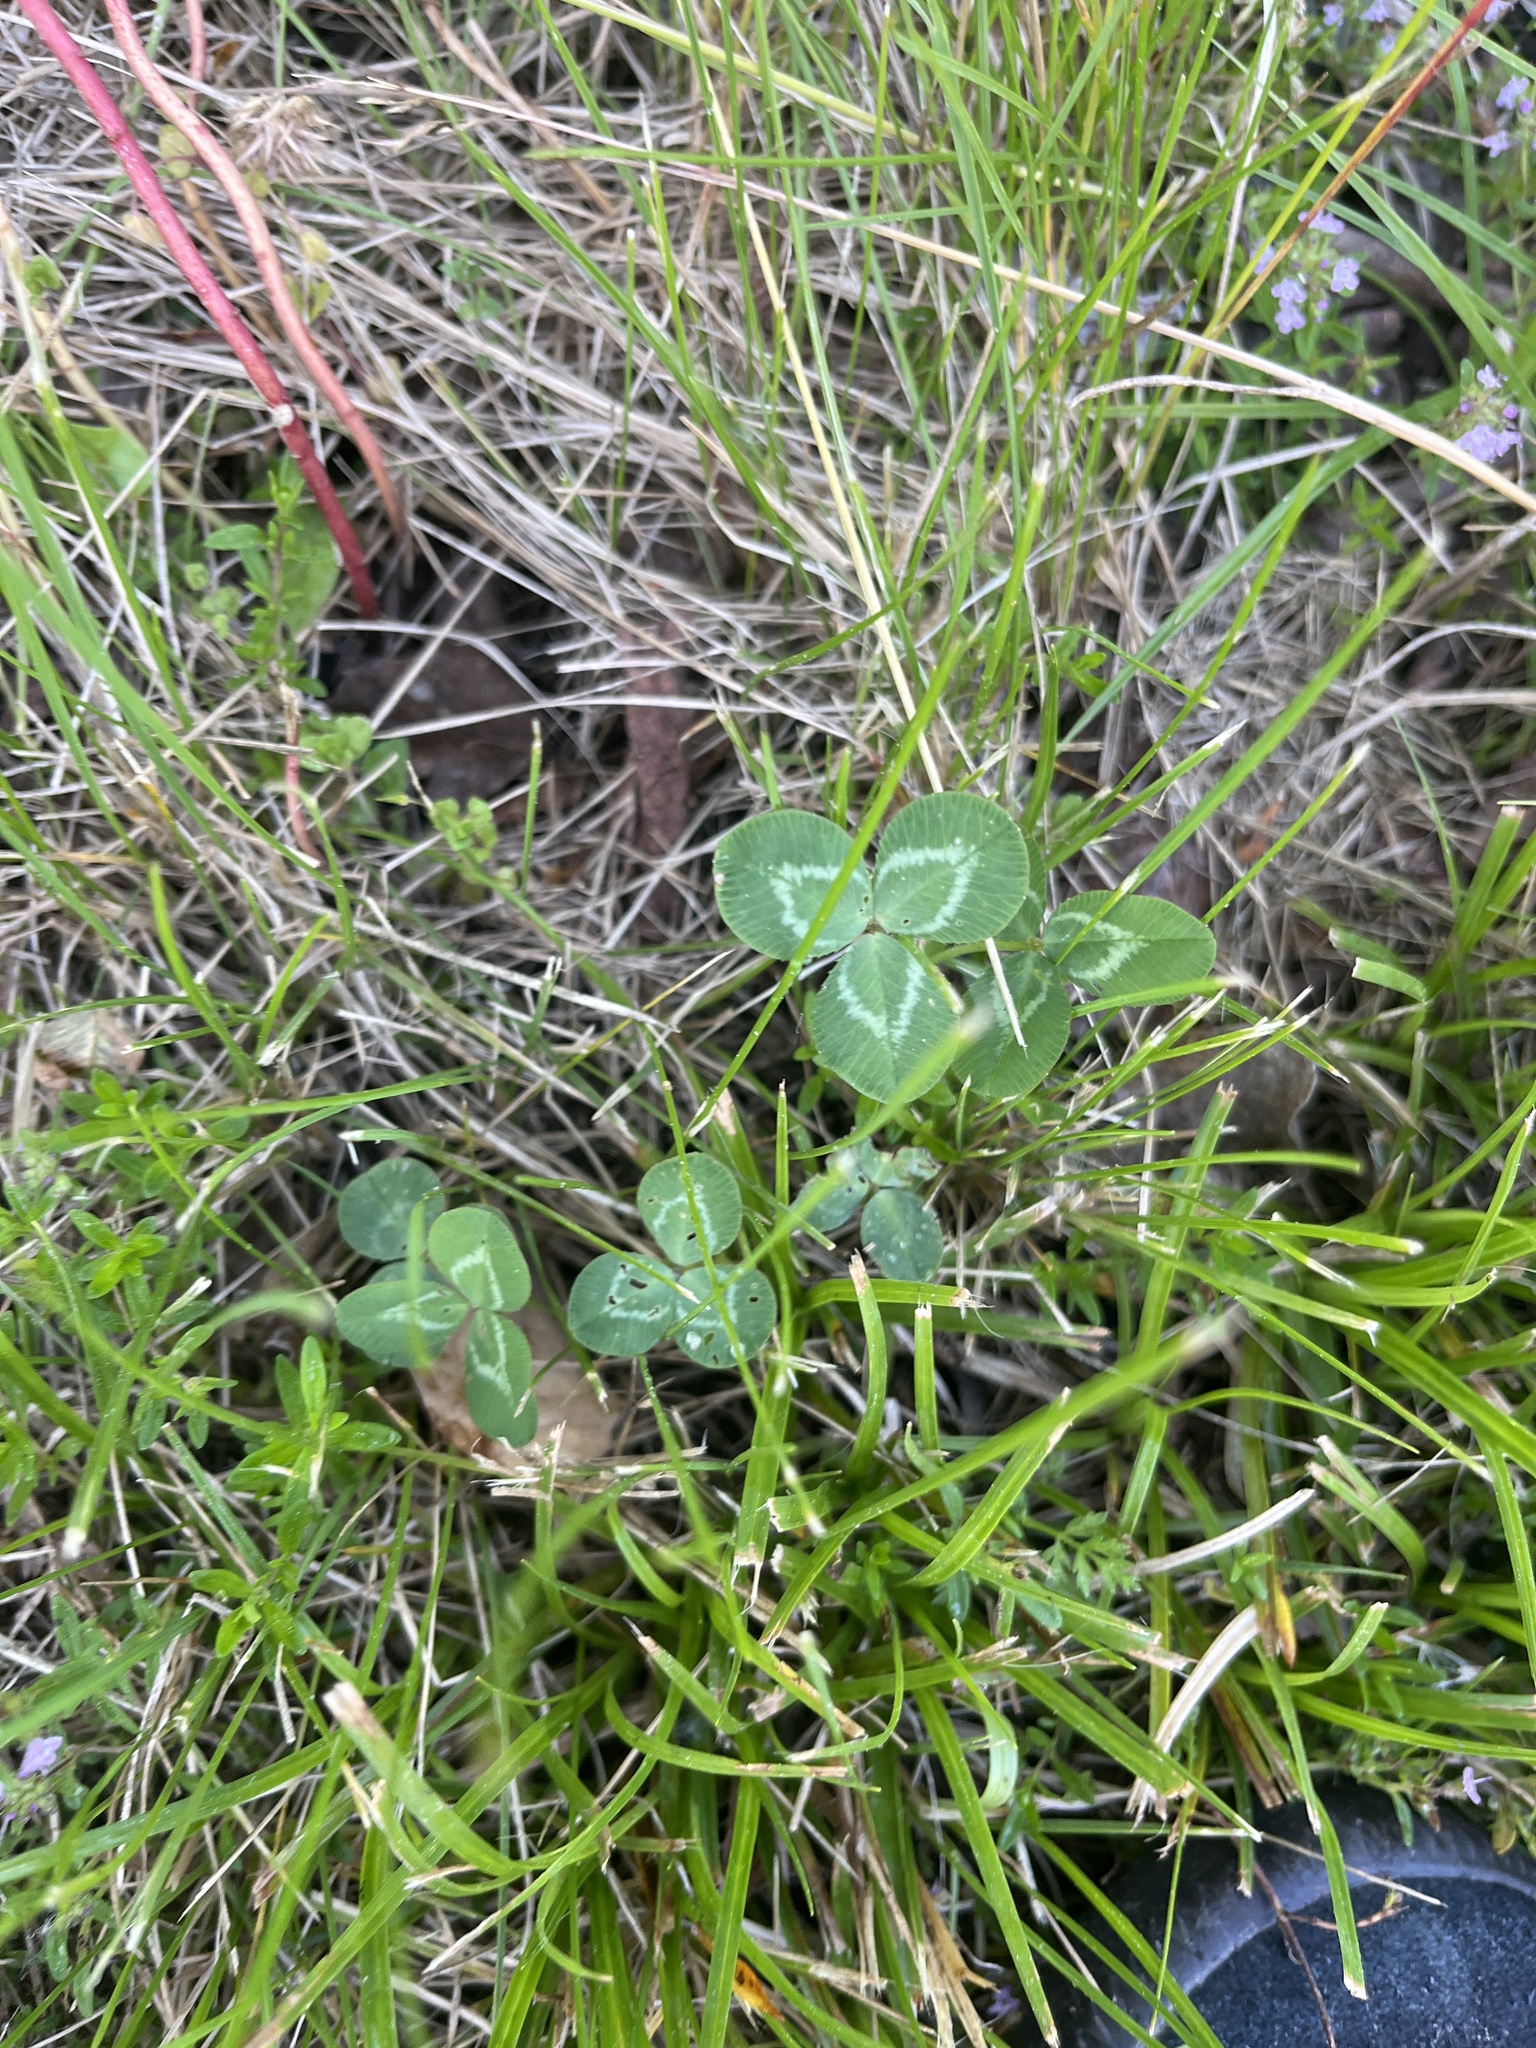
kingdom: Plantae
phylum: Tracheophyta
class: Magnoliopsida
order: Fabales
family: Fabaceae
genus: Trifolium
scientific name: Trifolium repens
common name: White clover
